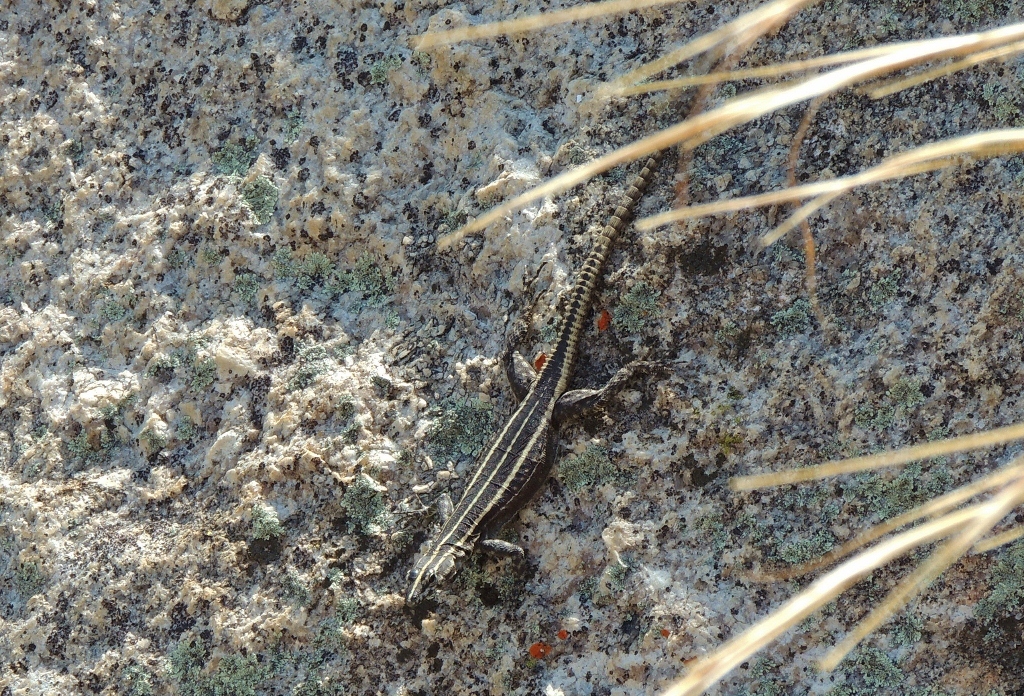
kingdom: Animalia
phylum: Chordata
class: Squamata
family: Cordylidae
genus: Platysaurus
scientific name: Platysaurus intermedius
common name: Common flat lizard
